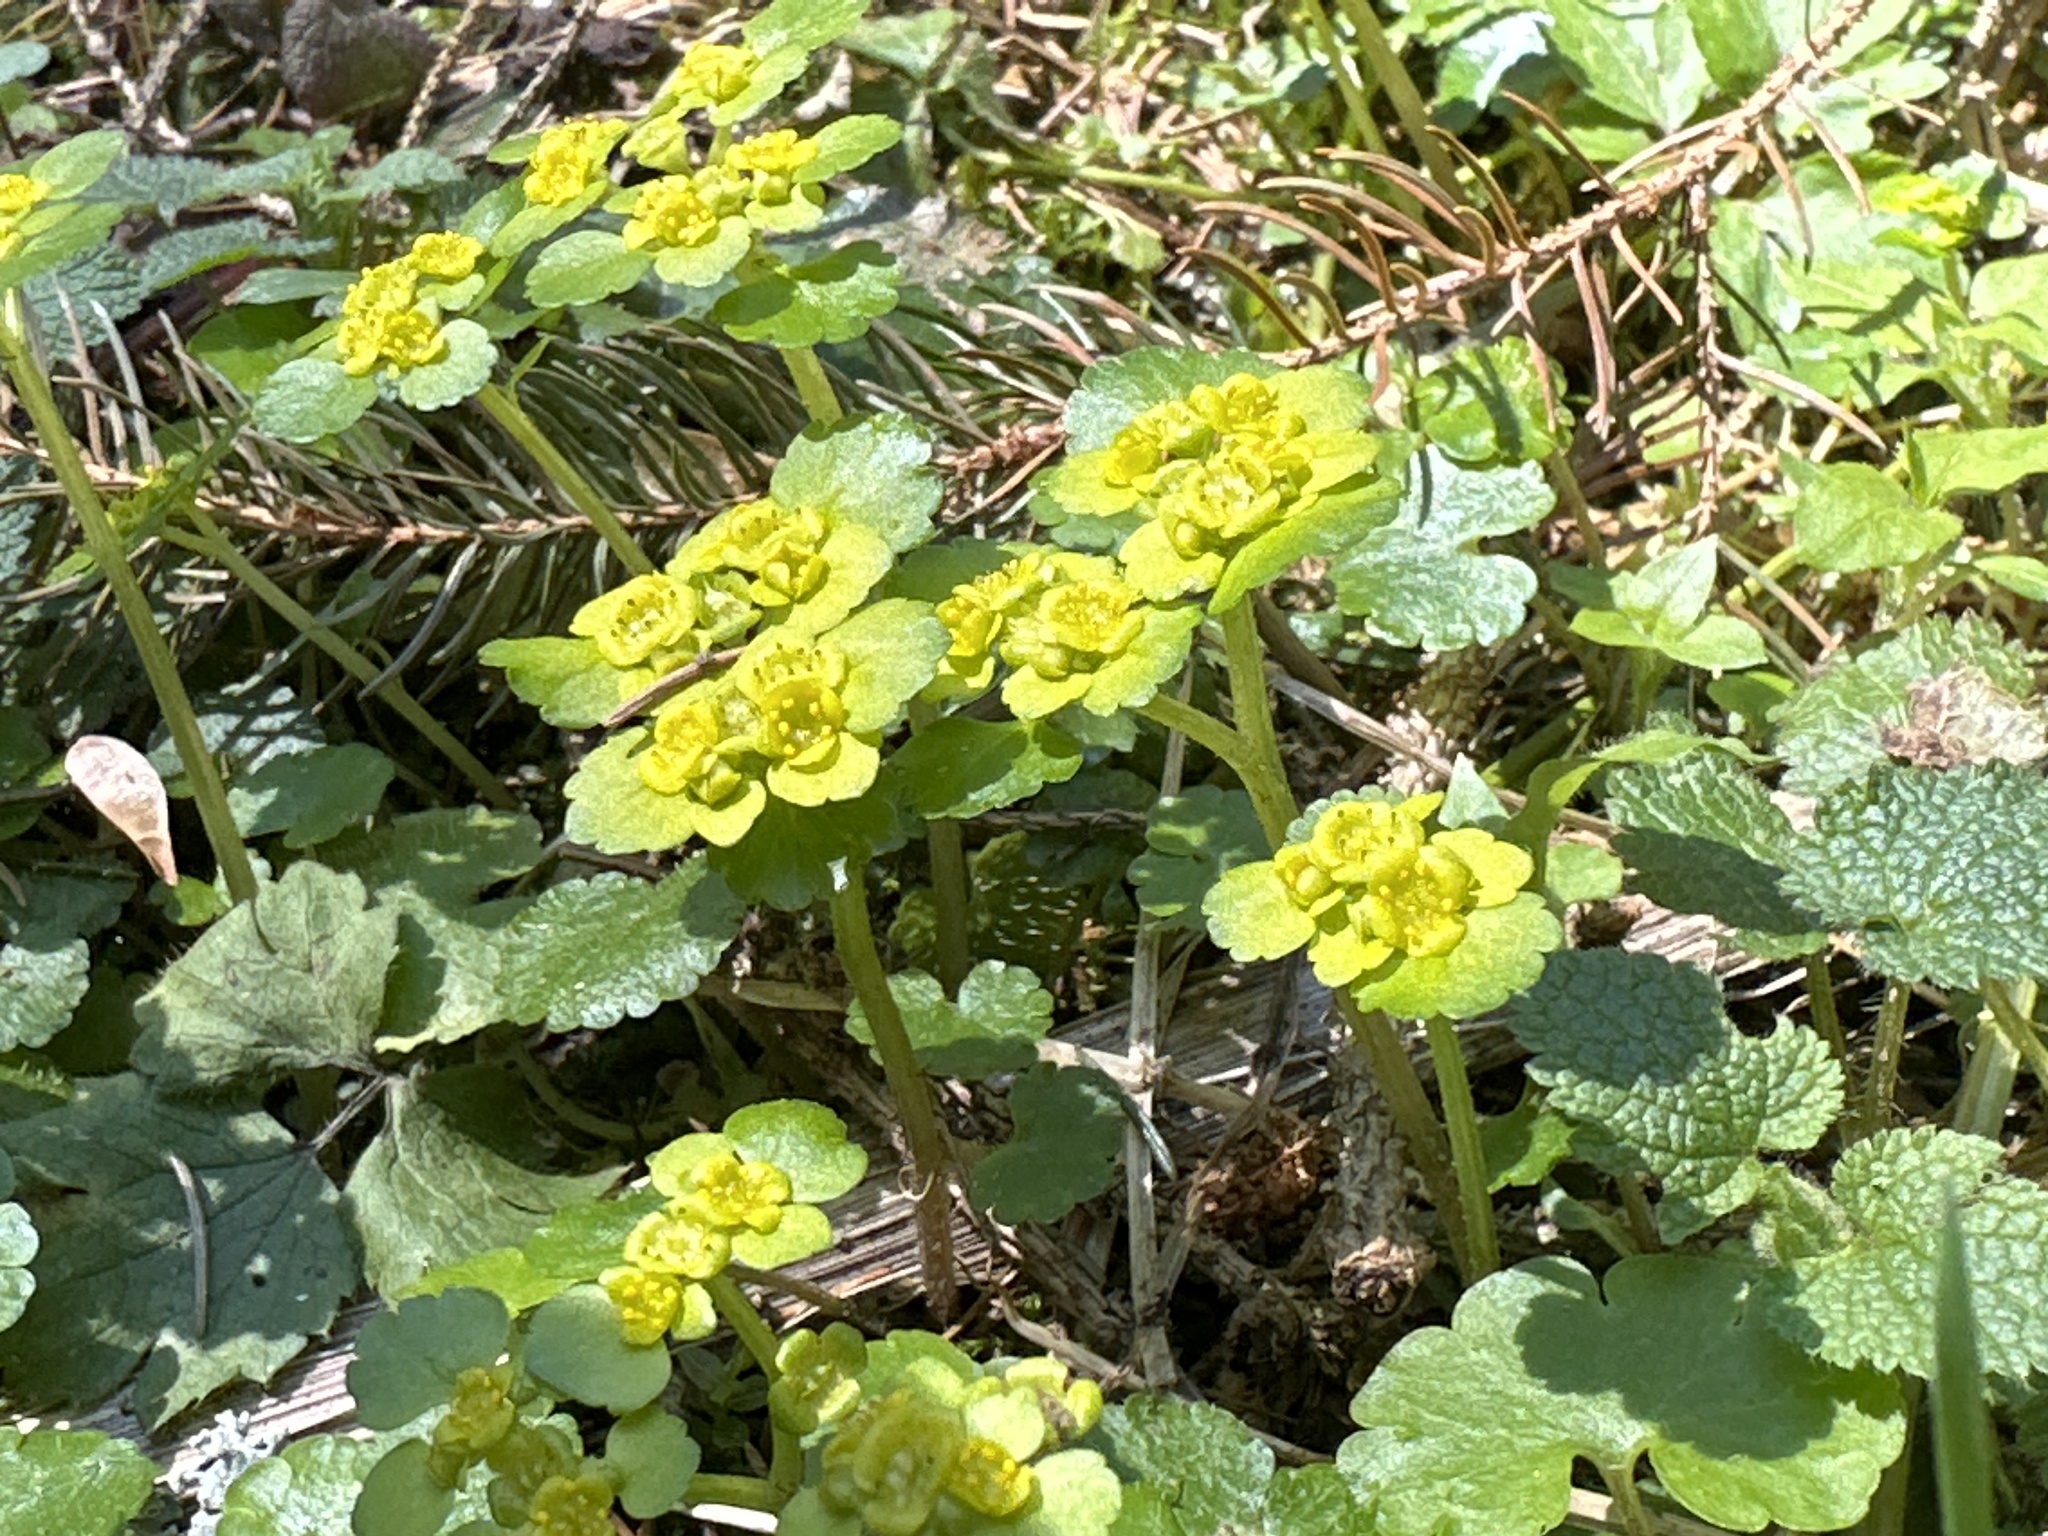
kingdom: Plantae
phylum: Tracheophyta
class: Magnoliopsida
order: Saxifragales
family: Saxifragaceae
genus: Chrysosplenium
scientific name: Chrysosplenium alternifolium
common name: Alternate-leaved golden-saxifrage
